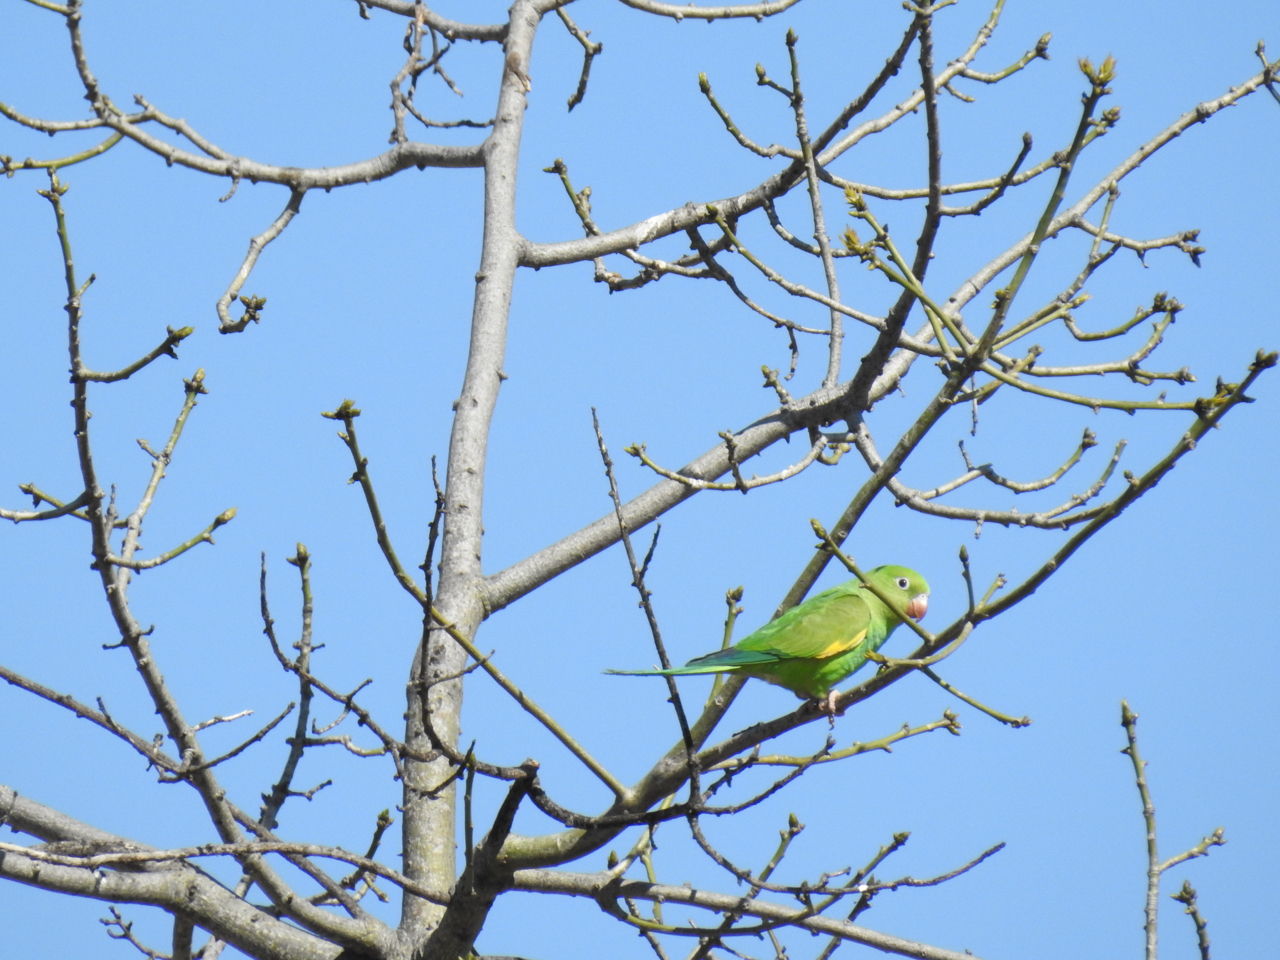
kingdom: Animalia
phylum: Chordata
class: Aves
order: Psittaciformes
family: Psittacidae
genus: Brotogeris
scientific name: Brotogeris chiriri
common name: Yellow-chevroned parakeet
